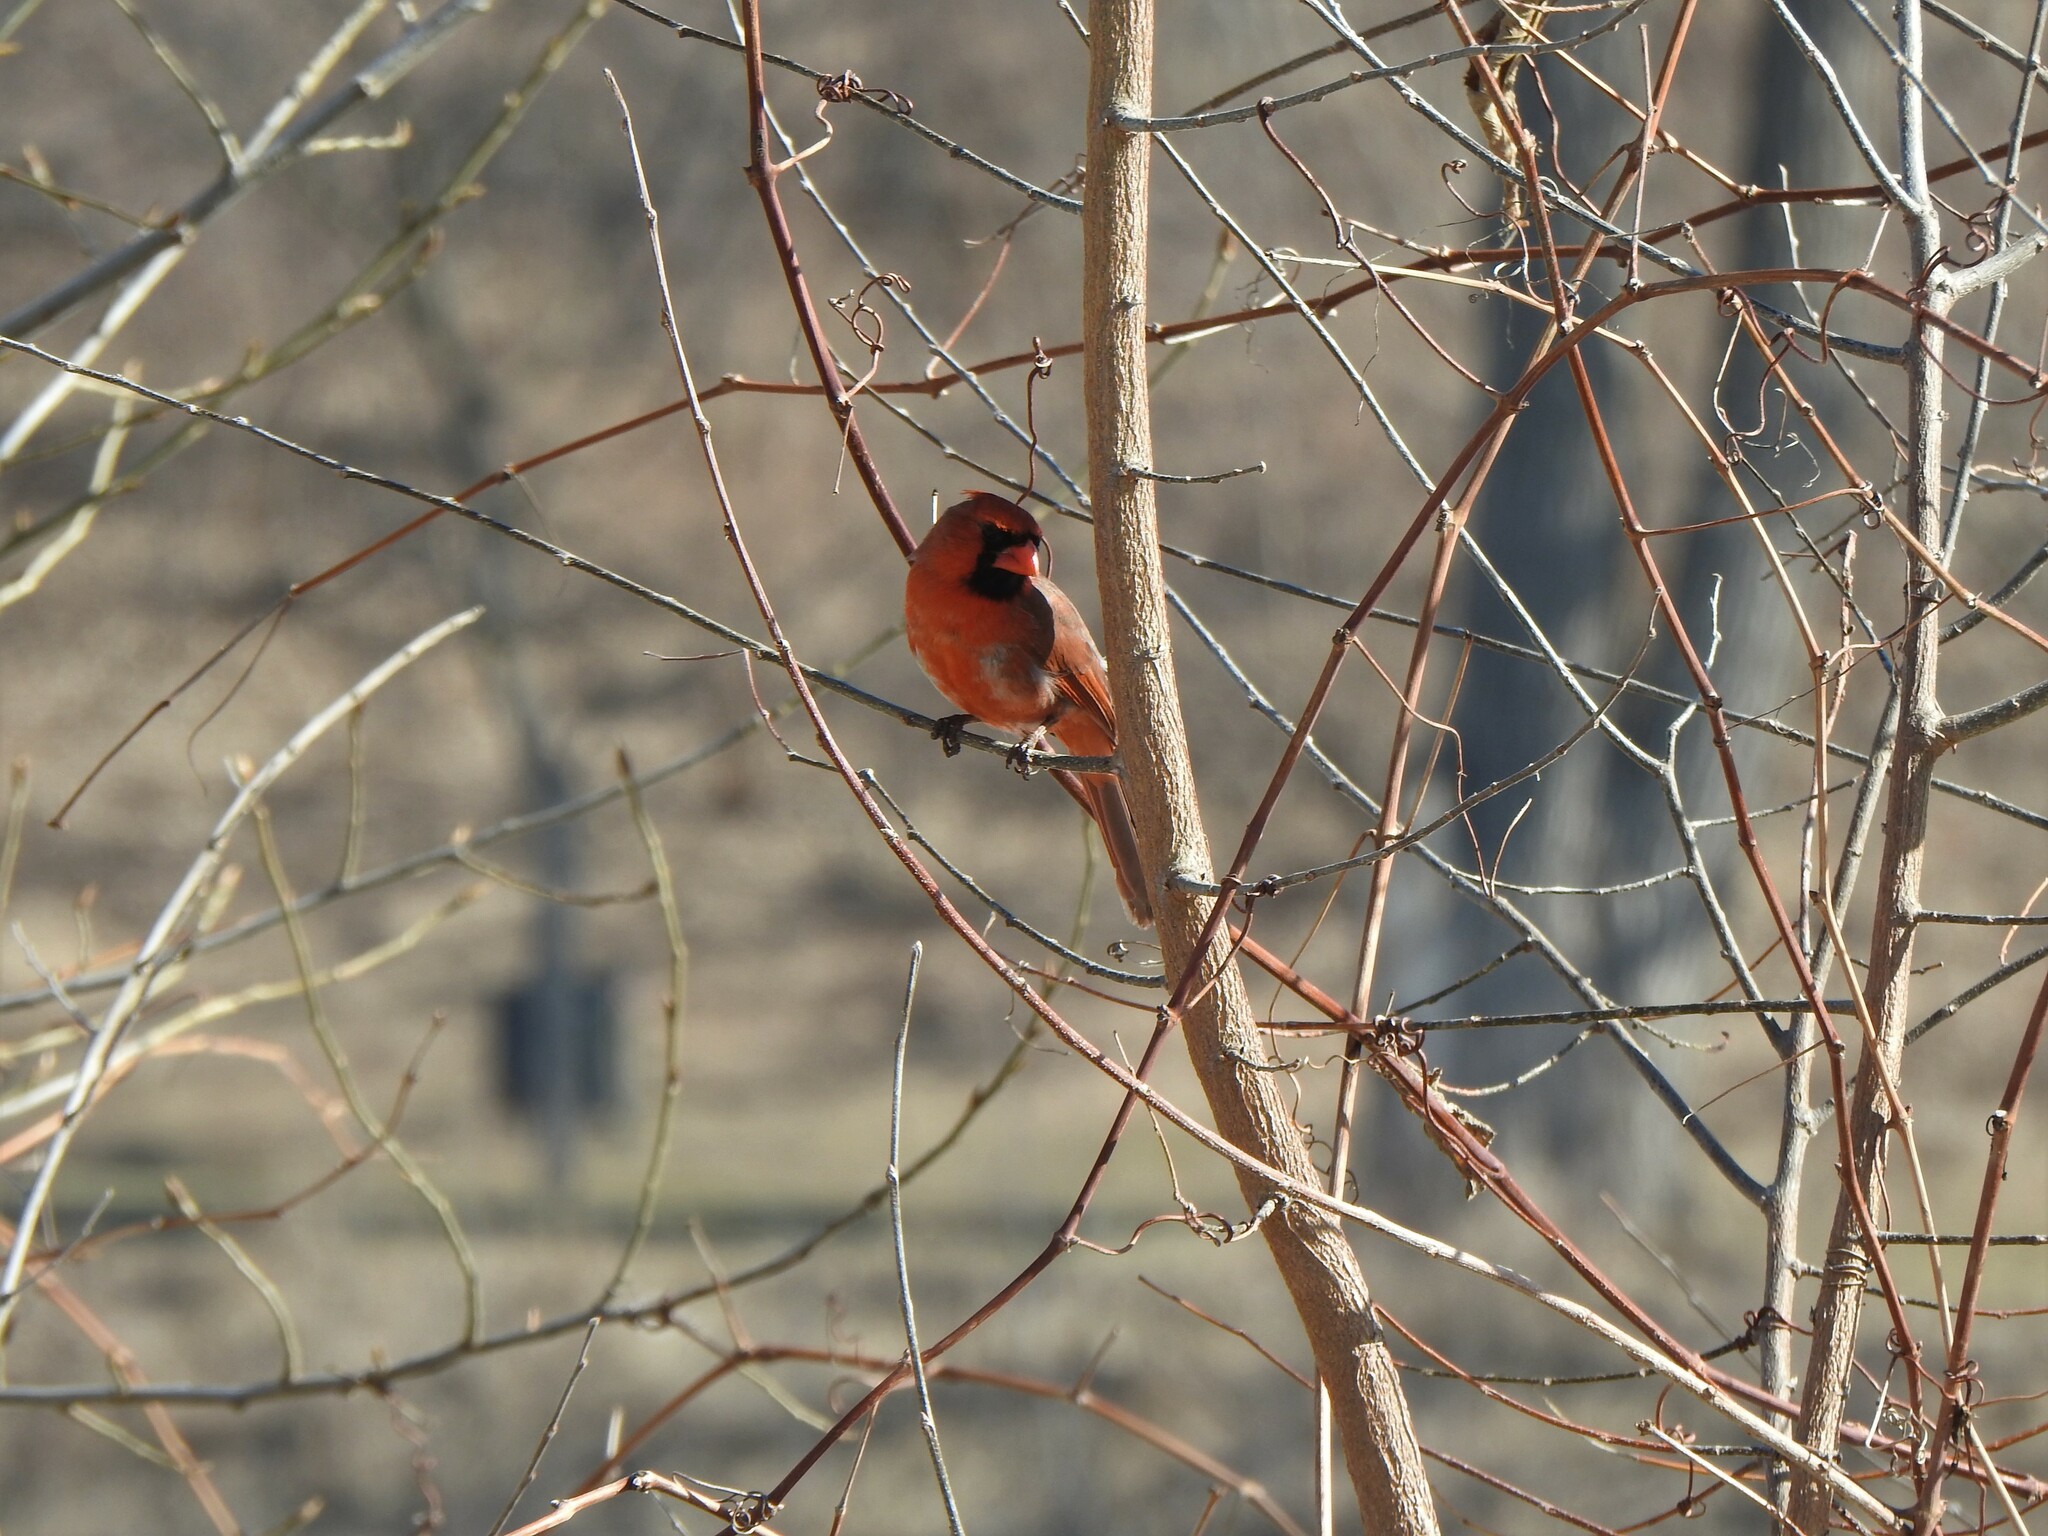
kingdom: Animalia
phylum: Chordata
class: Aves
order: Passeriformes
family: Cardinalidae
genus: Cardinalis
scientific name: Cardinalis cardinalis
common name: Northern cardinal
